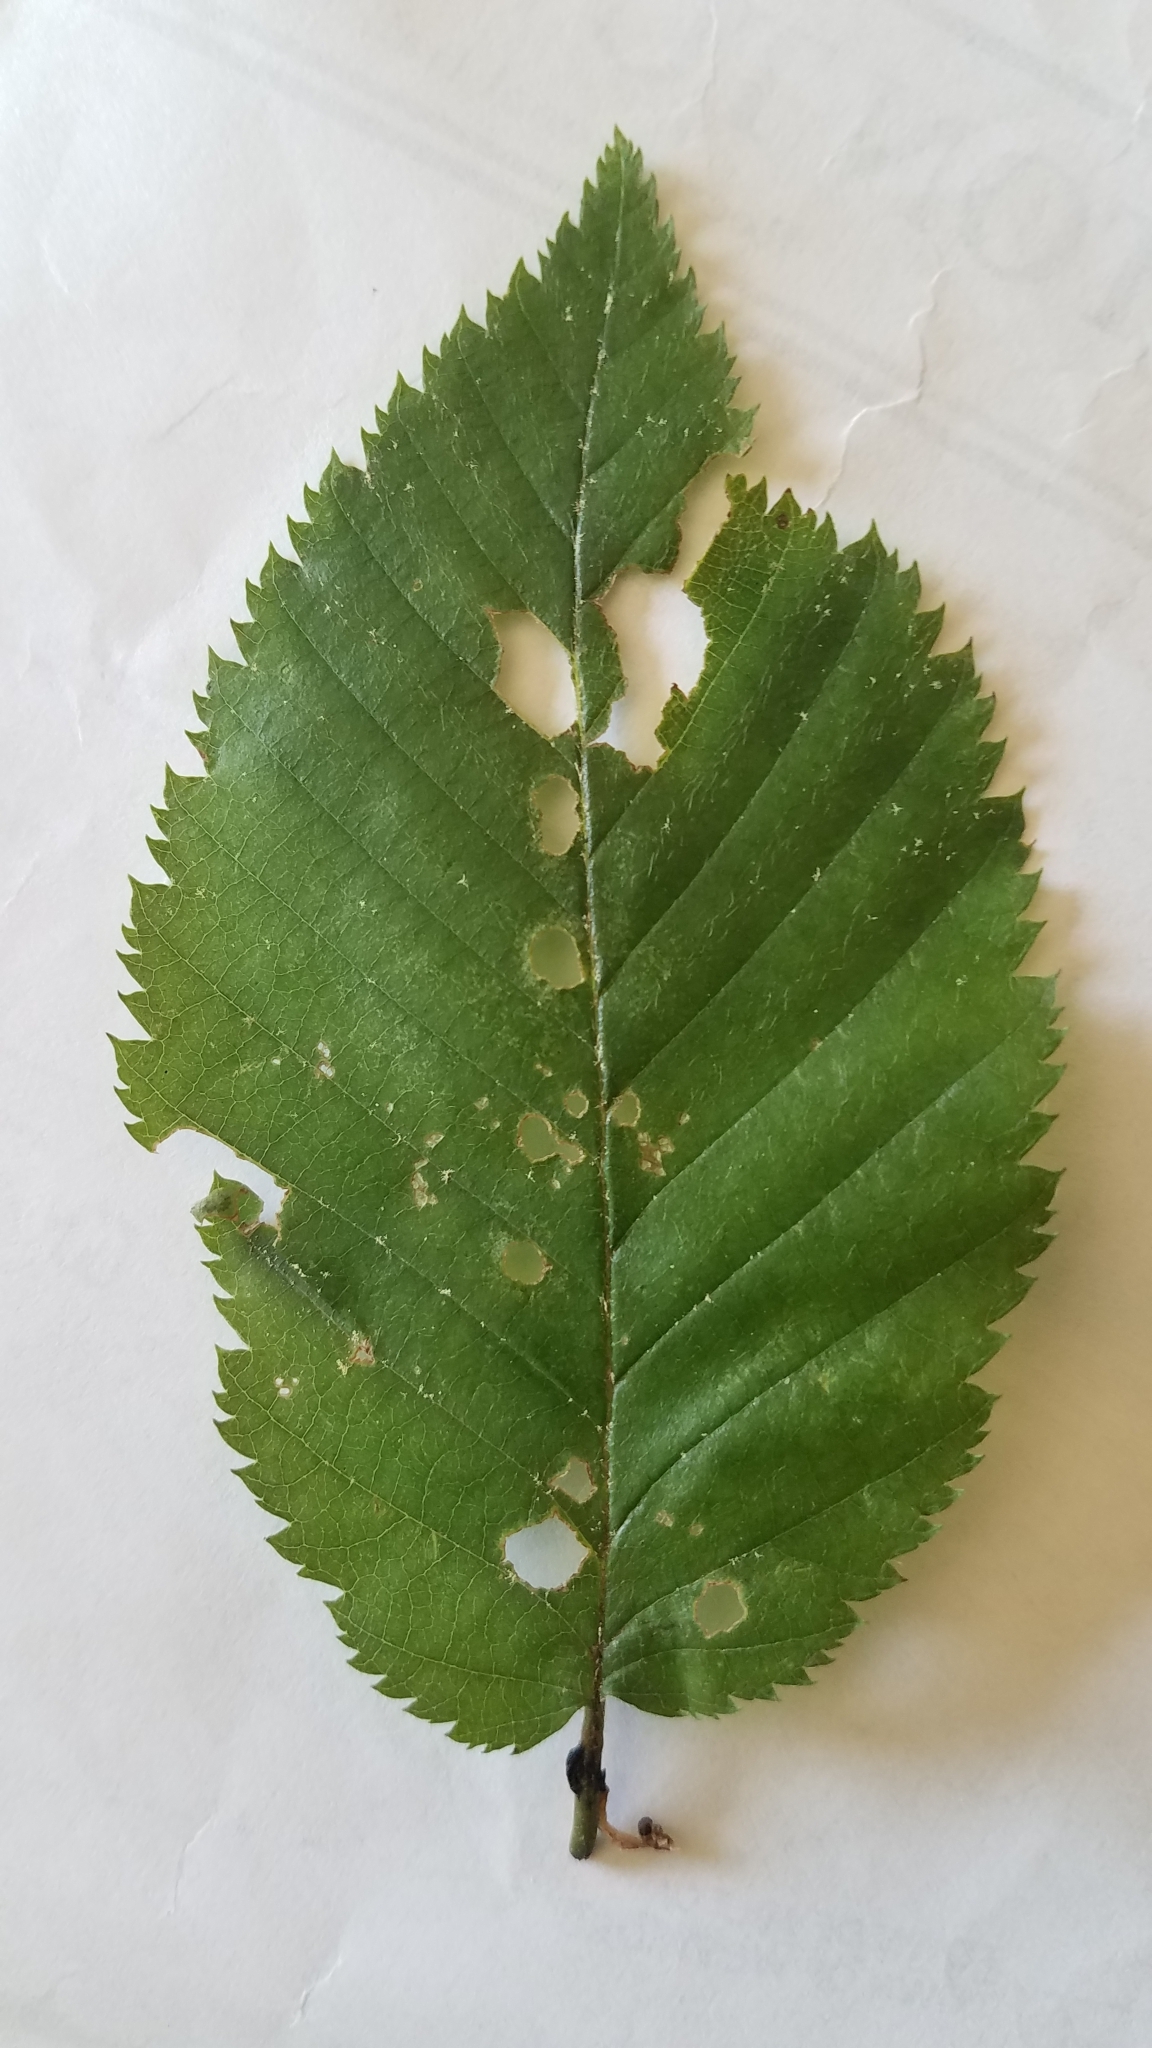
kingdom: Plantae
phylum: Tracheophyta
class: Magnoliopsida
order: Fagales
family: Betulaceae
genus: Betula
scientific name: Betula alleghaniensis
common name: Yellow birch
